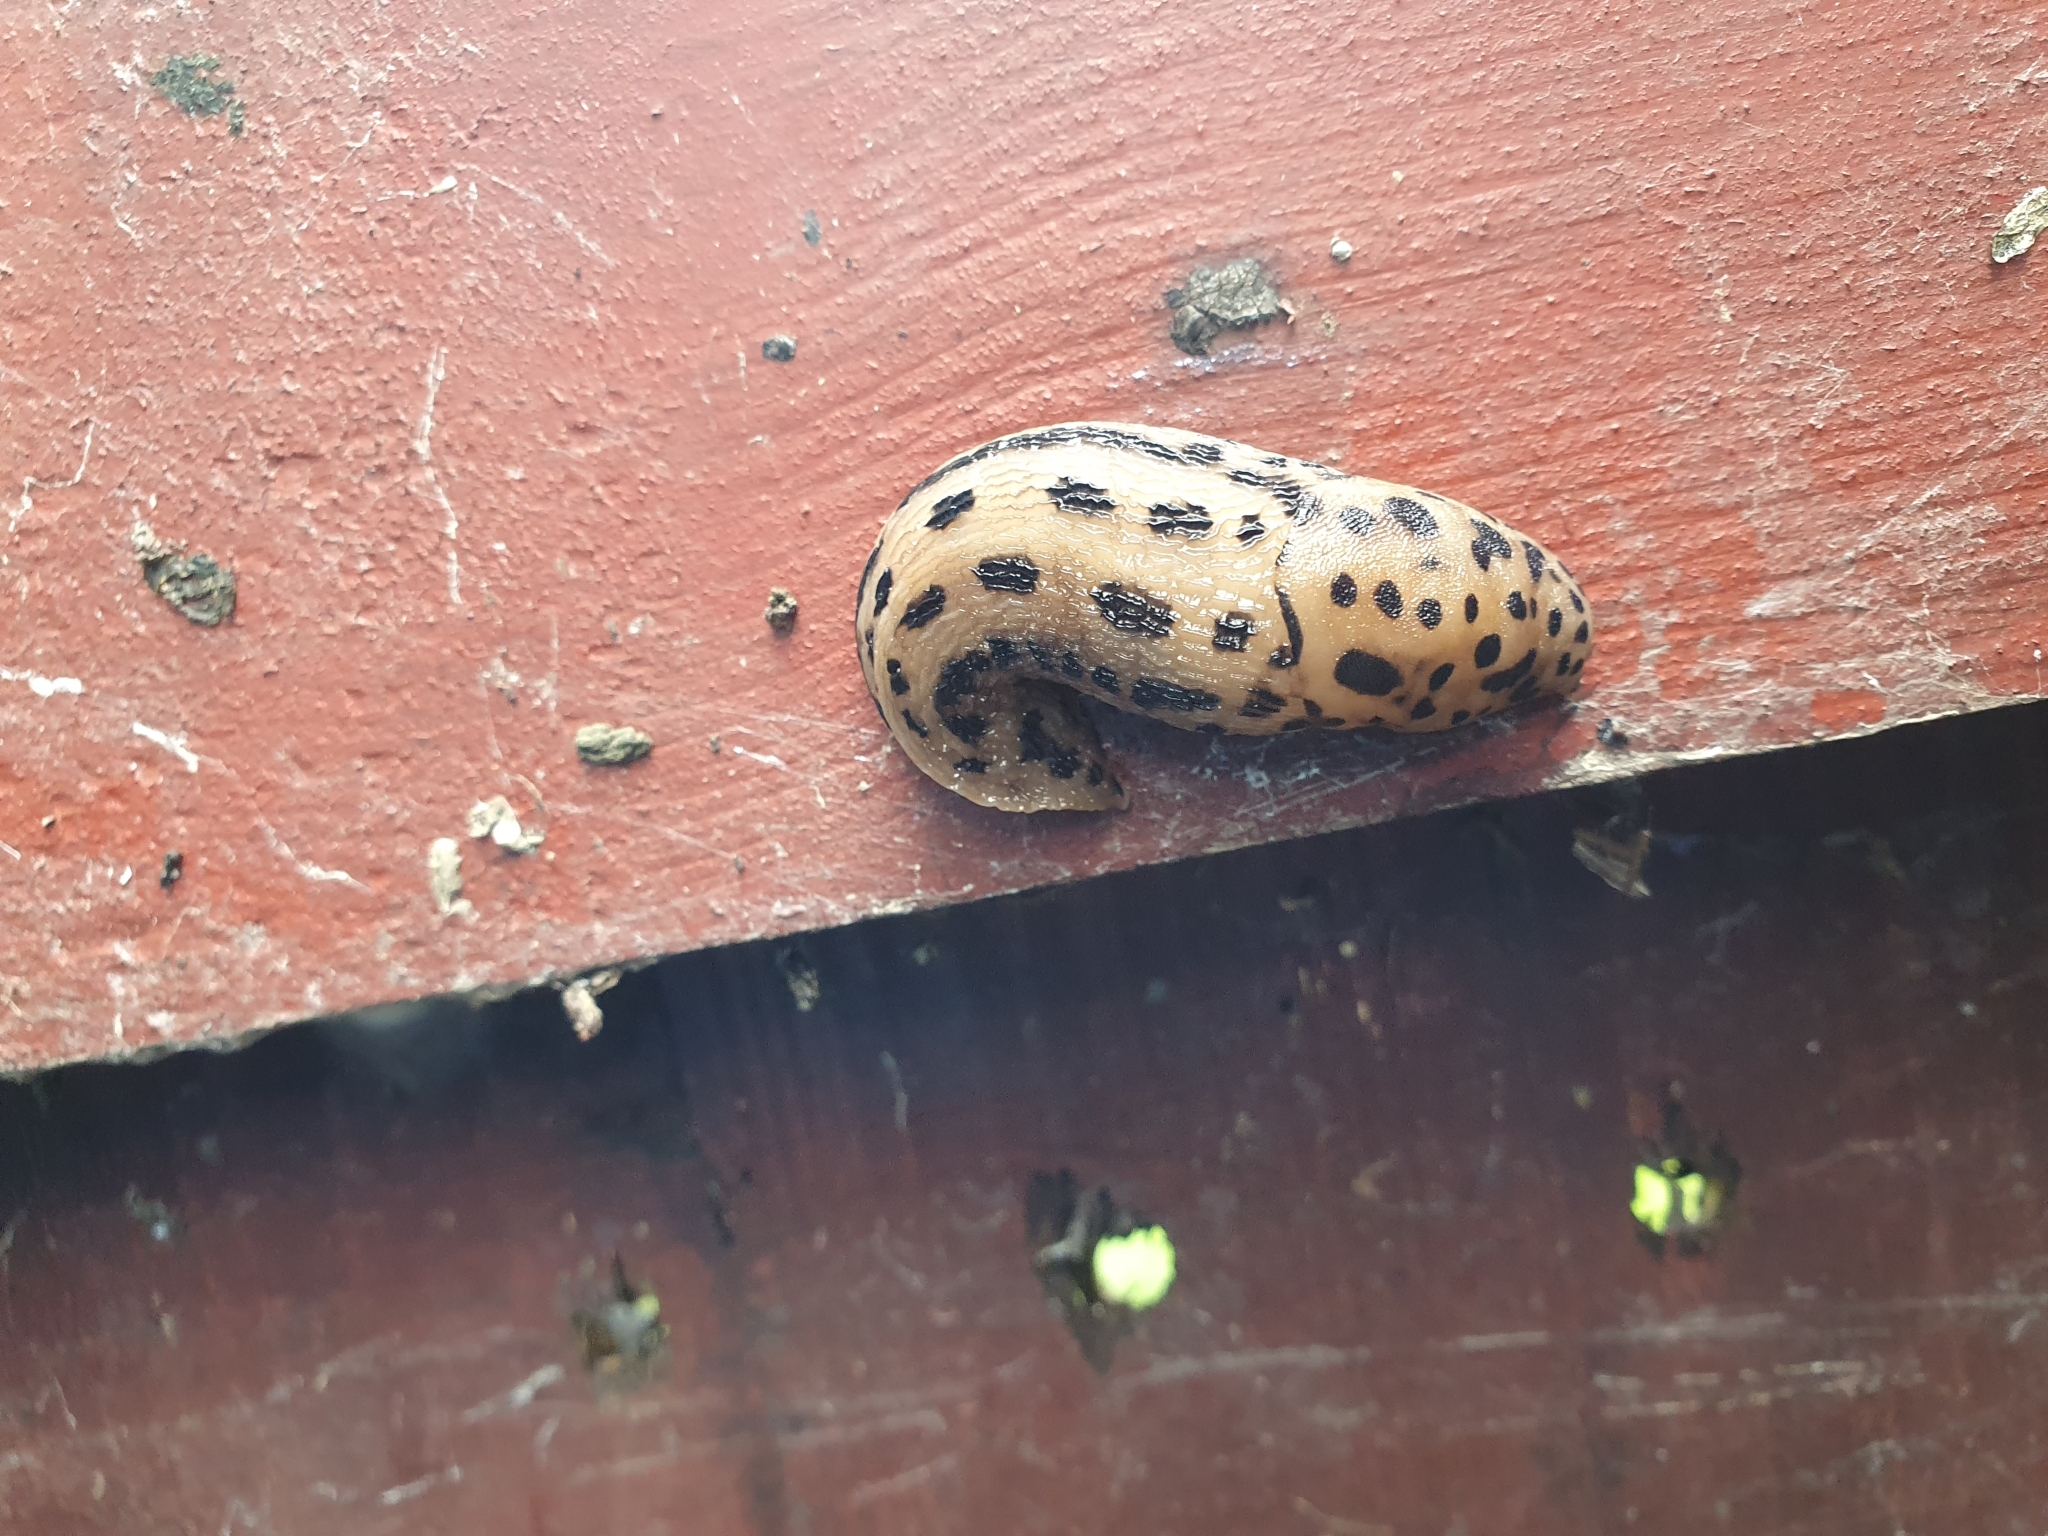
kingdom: Animalia
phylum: Mollusca
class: Gastropoda
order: Stylommatophora
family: Limacidae
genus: Limax
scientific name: Limax maximus
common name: Great grey slug
